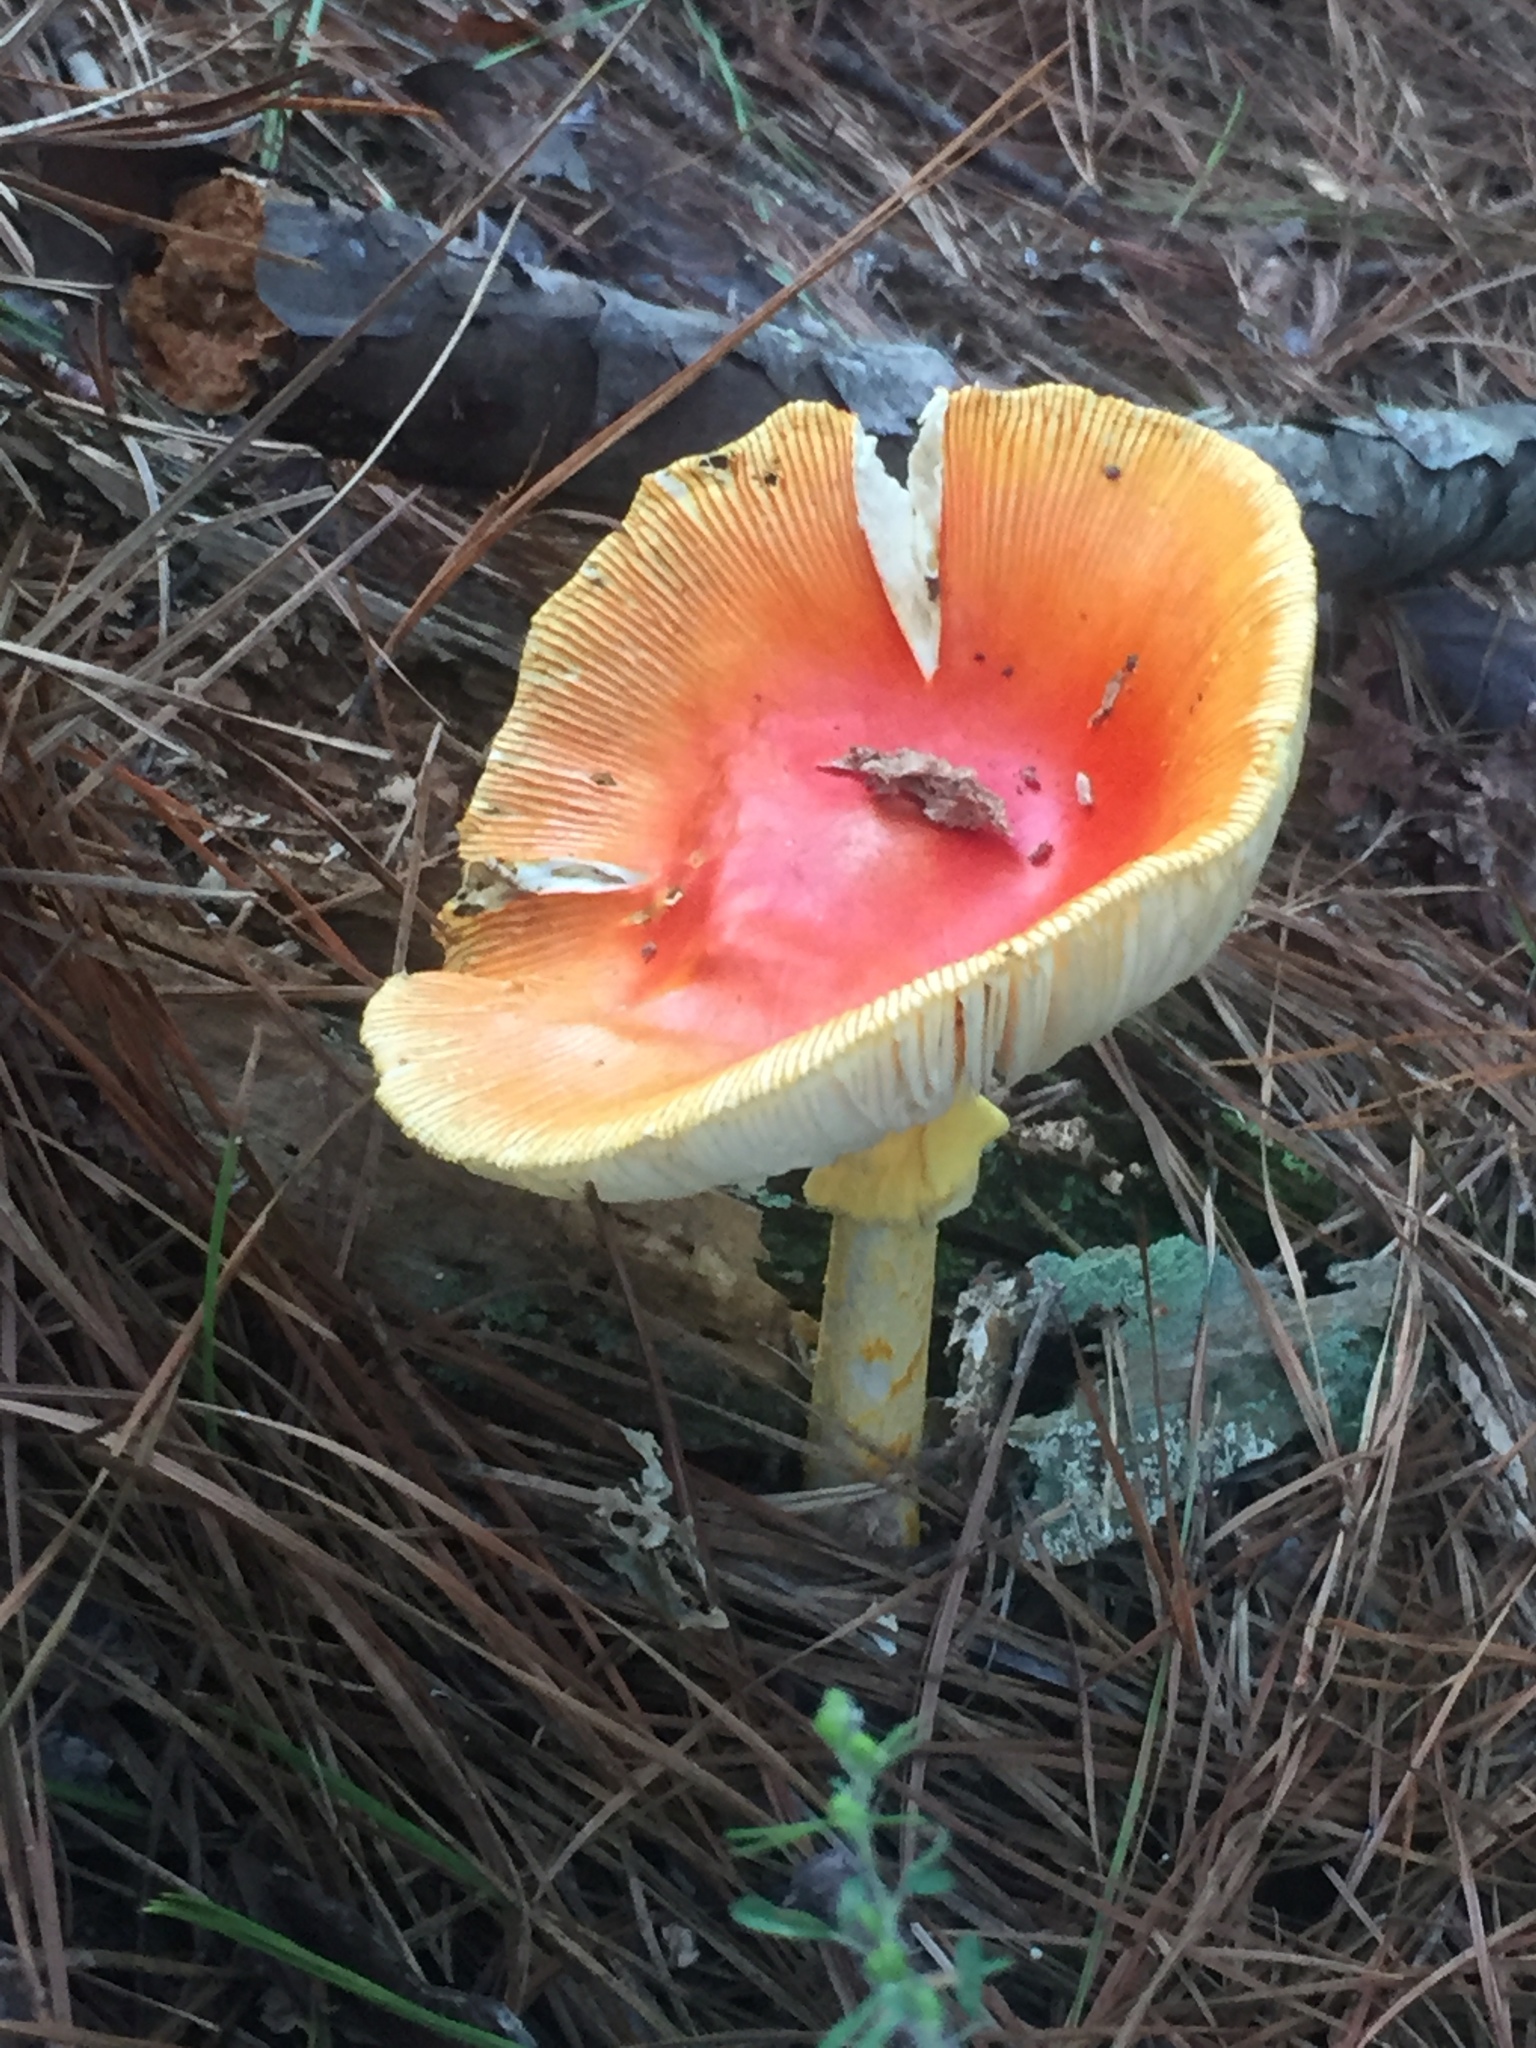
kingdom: Fungi
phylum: Basidiomycota
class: Agaricomycetes
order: Agaricales
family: Amanitaceae
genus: Amanita
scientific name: Amanita jacksonii
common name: Jackson's slender caesar
